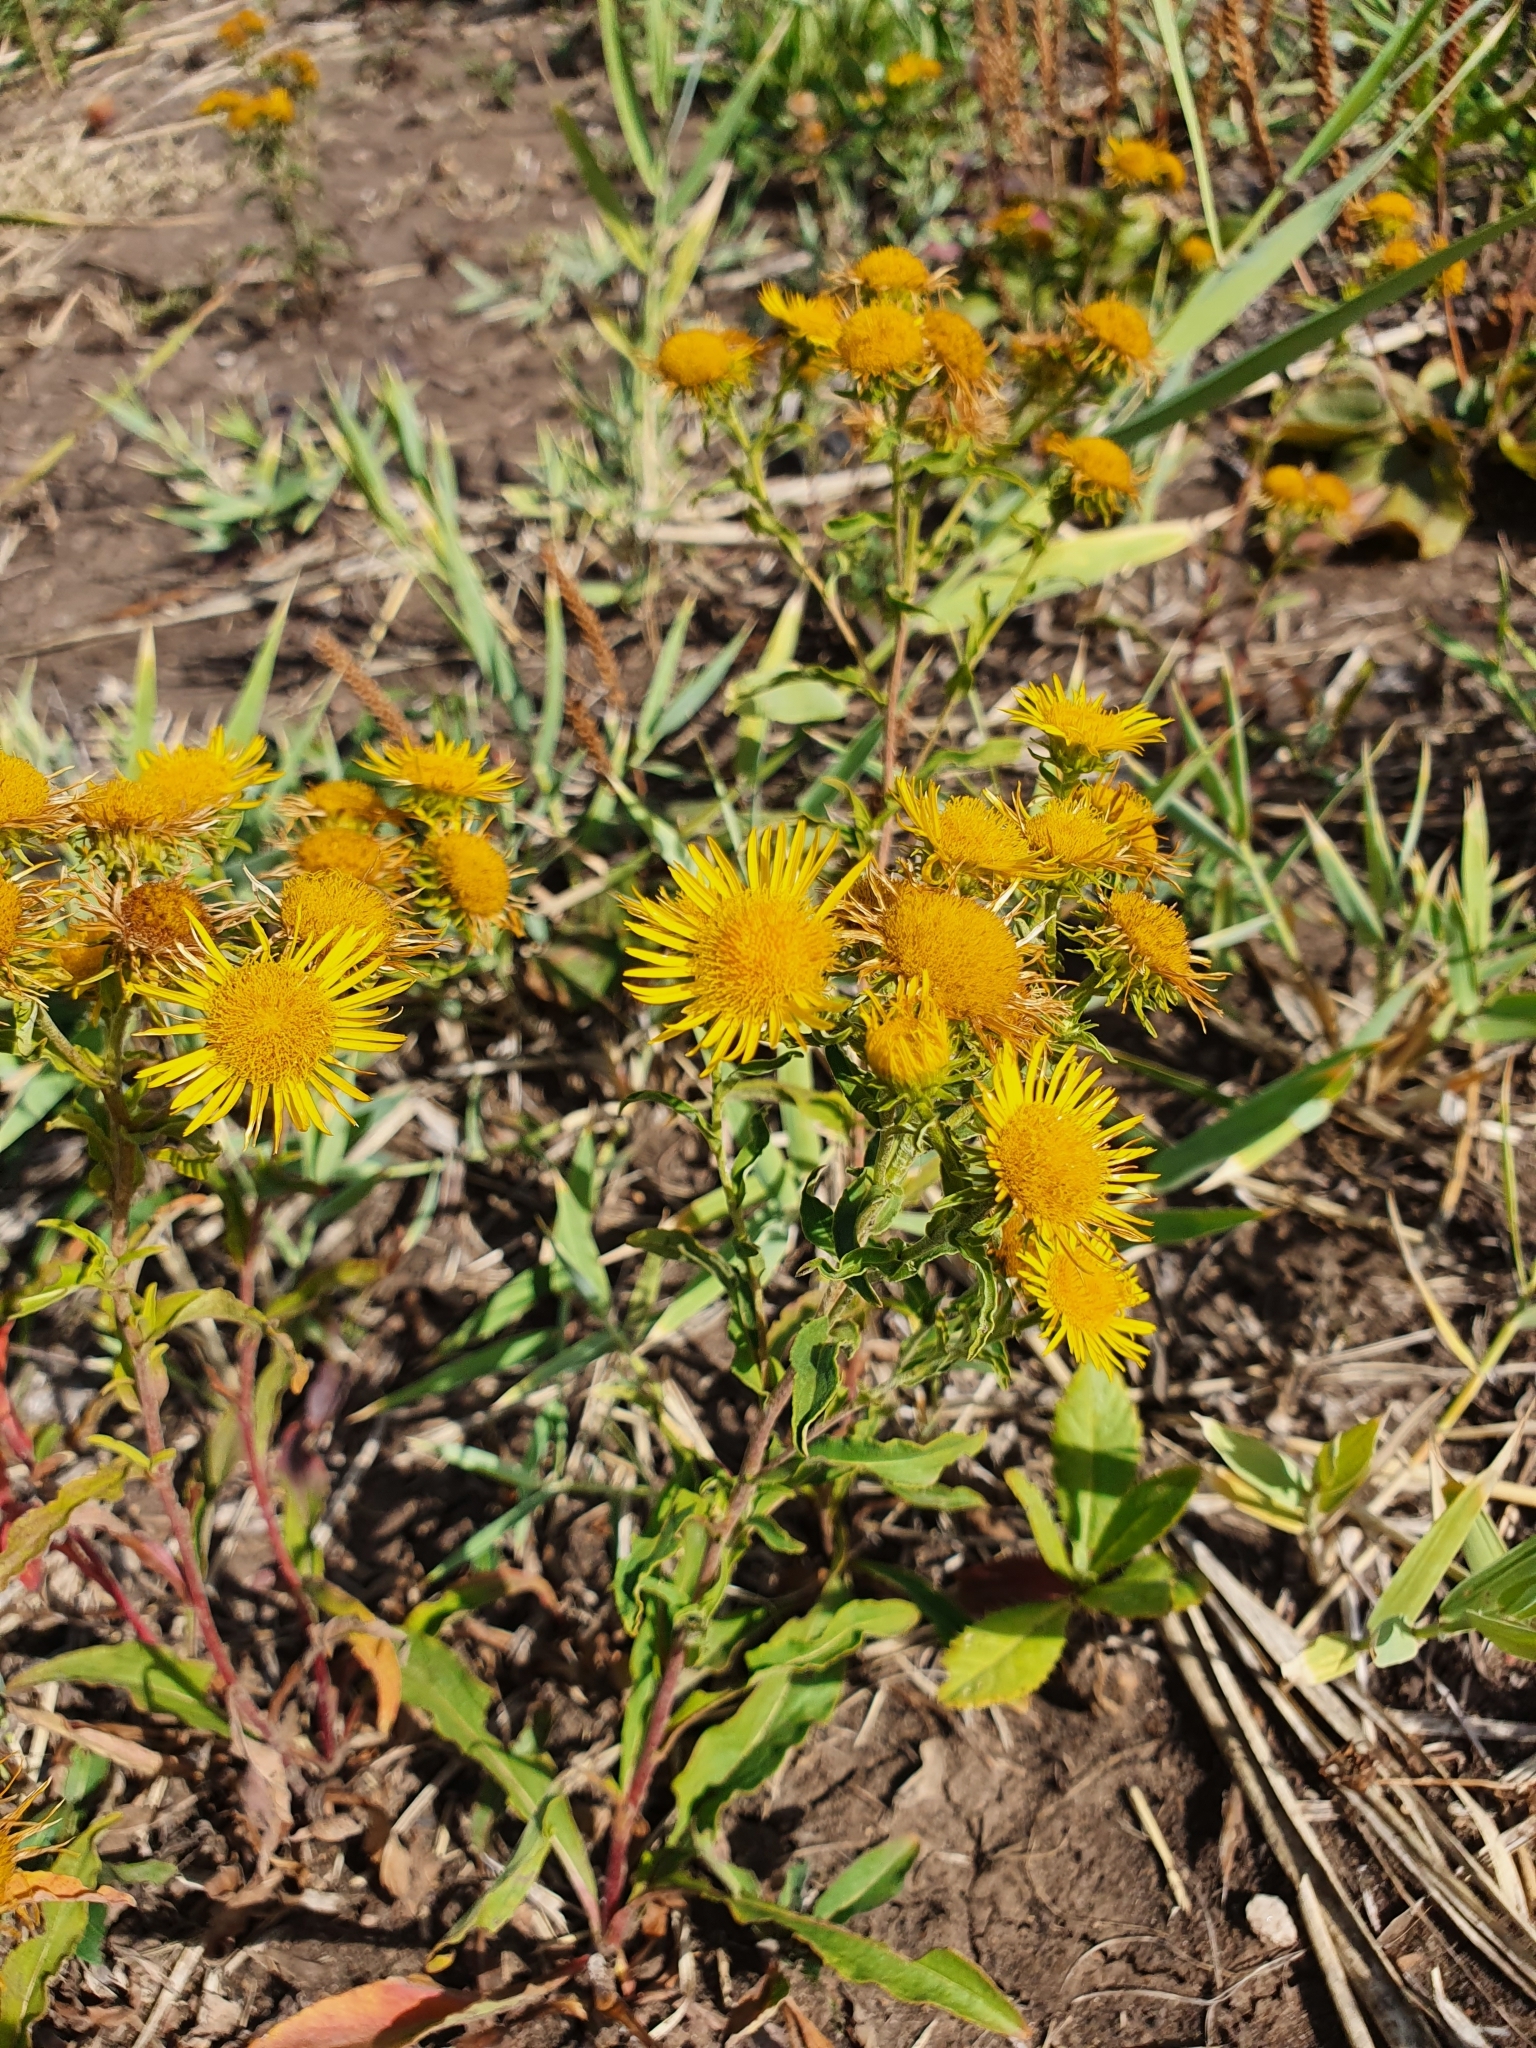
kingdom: Plantae
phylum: Tracheophyta
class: Magnoliopsida
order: Asterales
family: Asteraceae
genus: Pentanema
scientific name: Pentanema britannicum
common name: British elecampane
